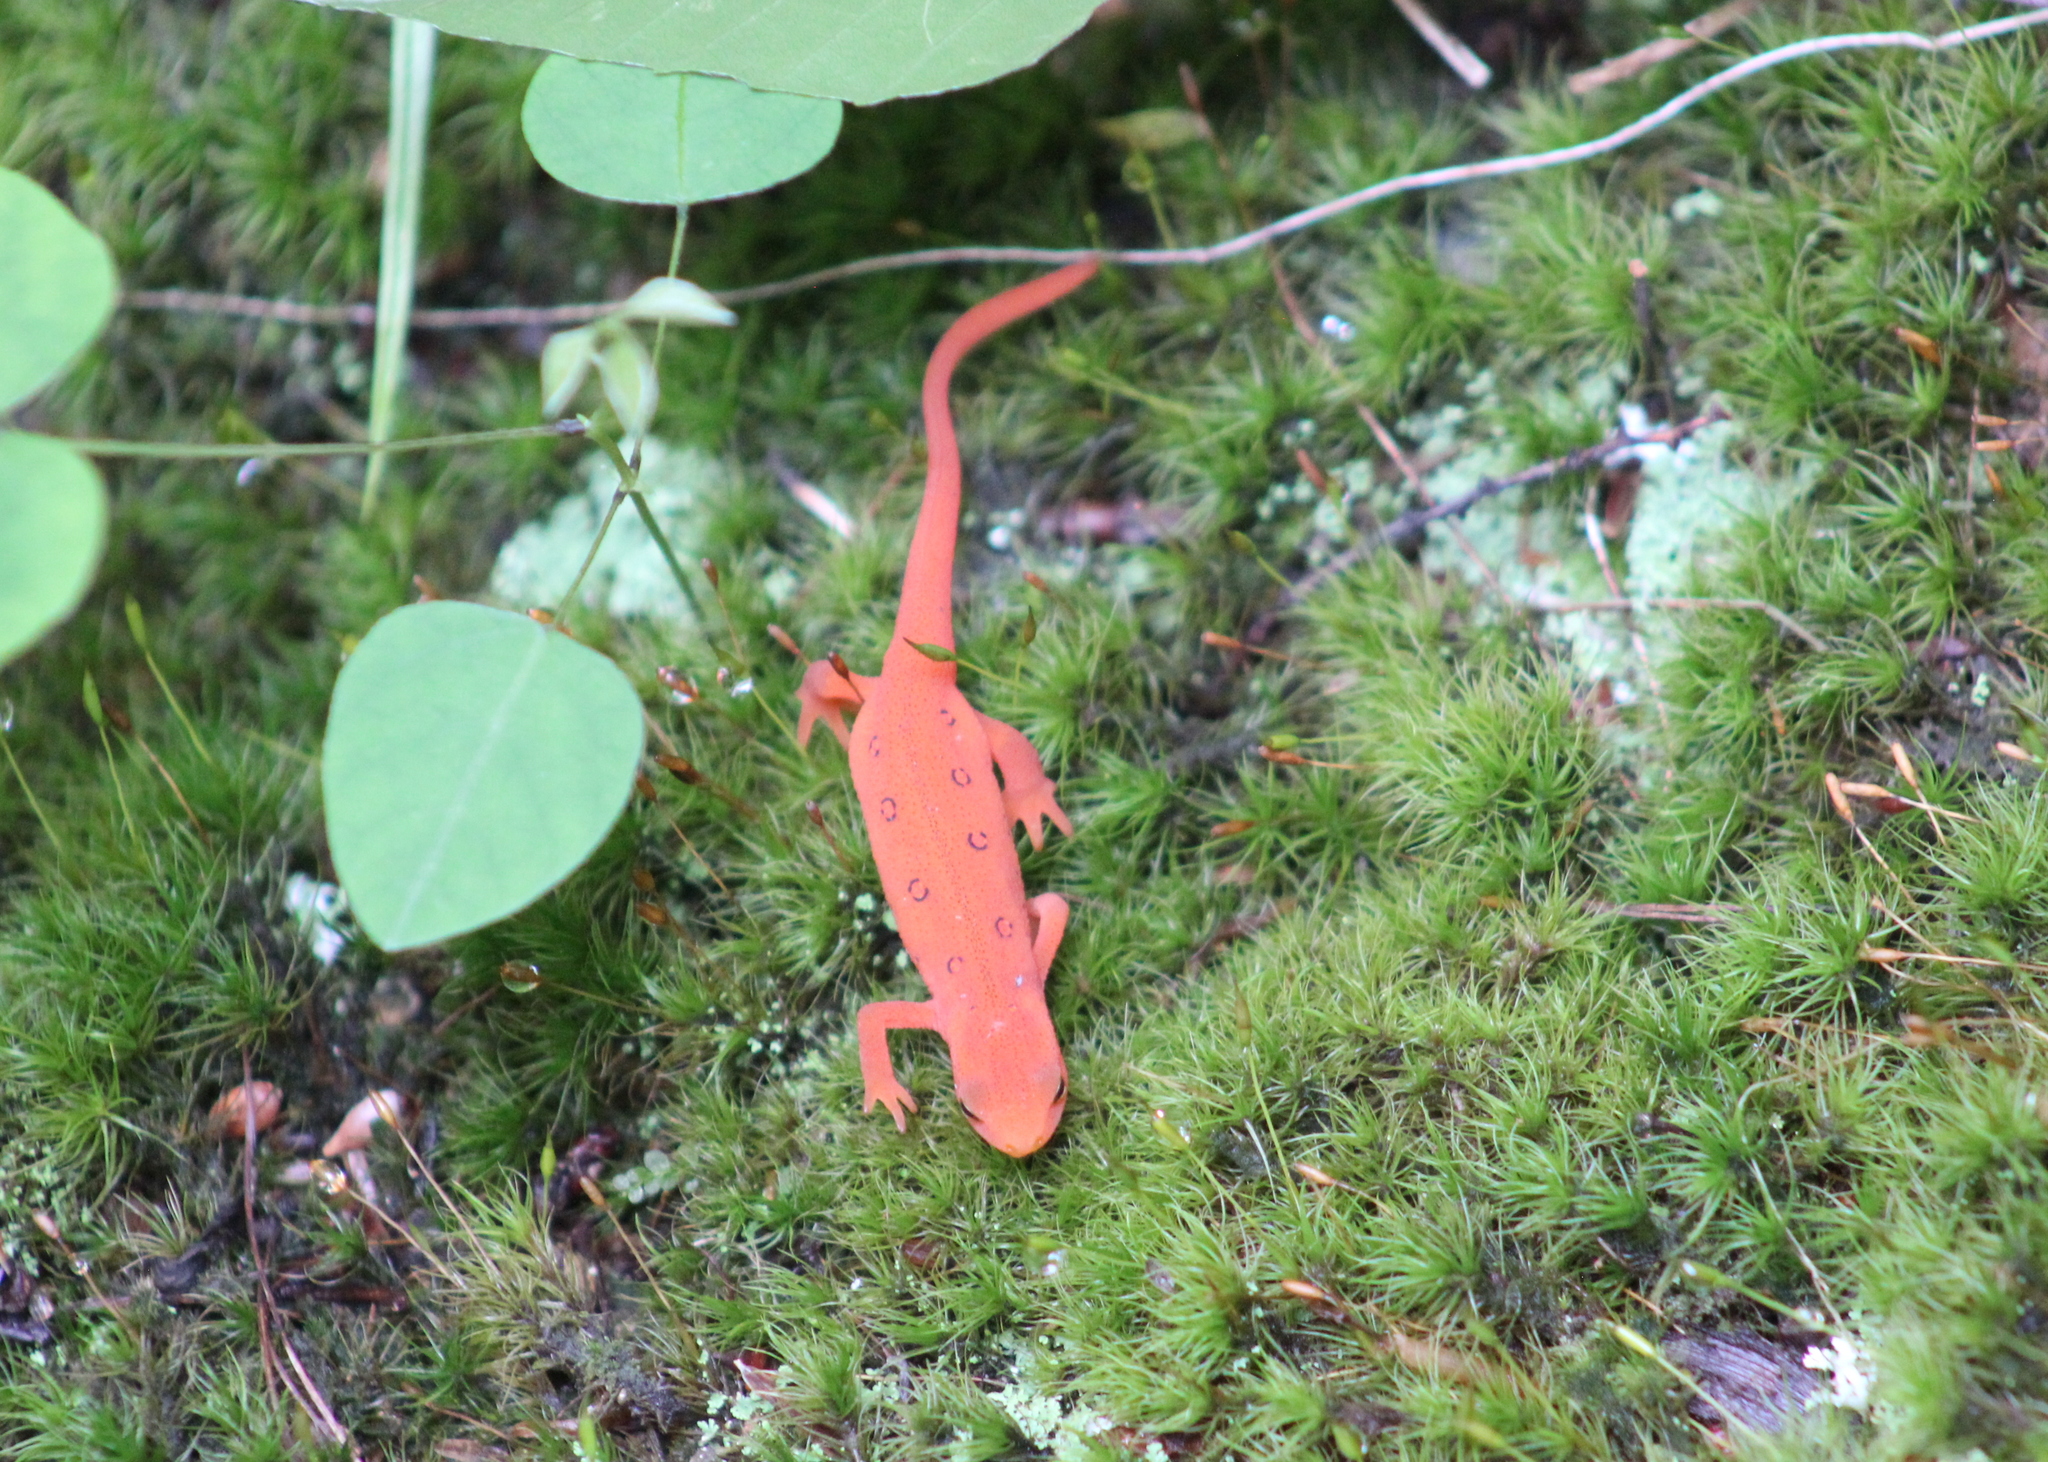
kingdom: Animalia
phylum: Chordata
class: Amphibia
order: Caudata
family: Salamandridae
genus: Notophthalmus
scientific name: Notophthalmus viridescens
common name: Eastern newt
